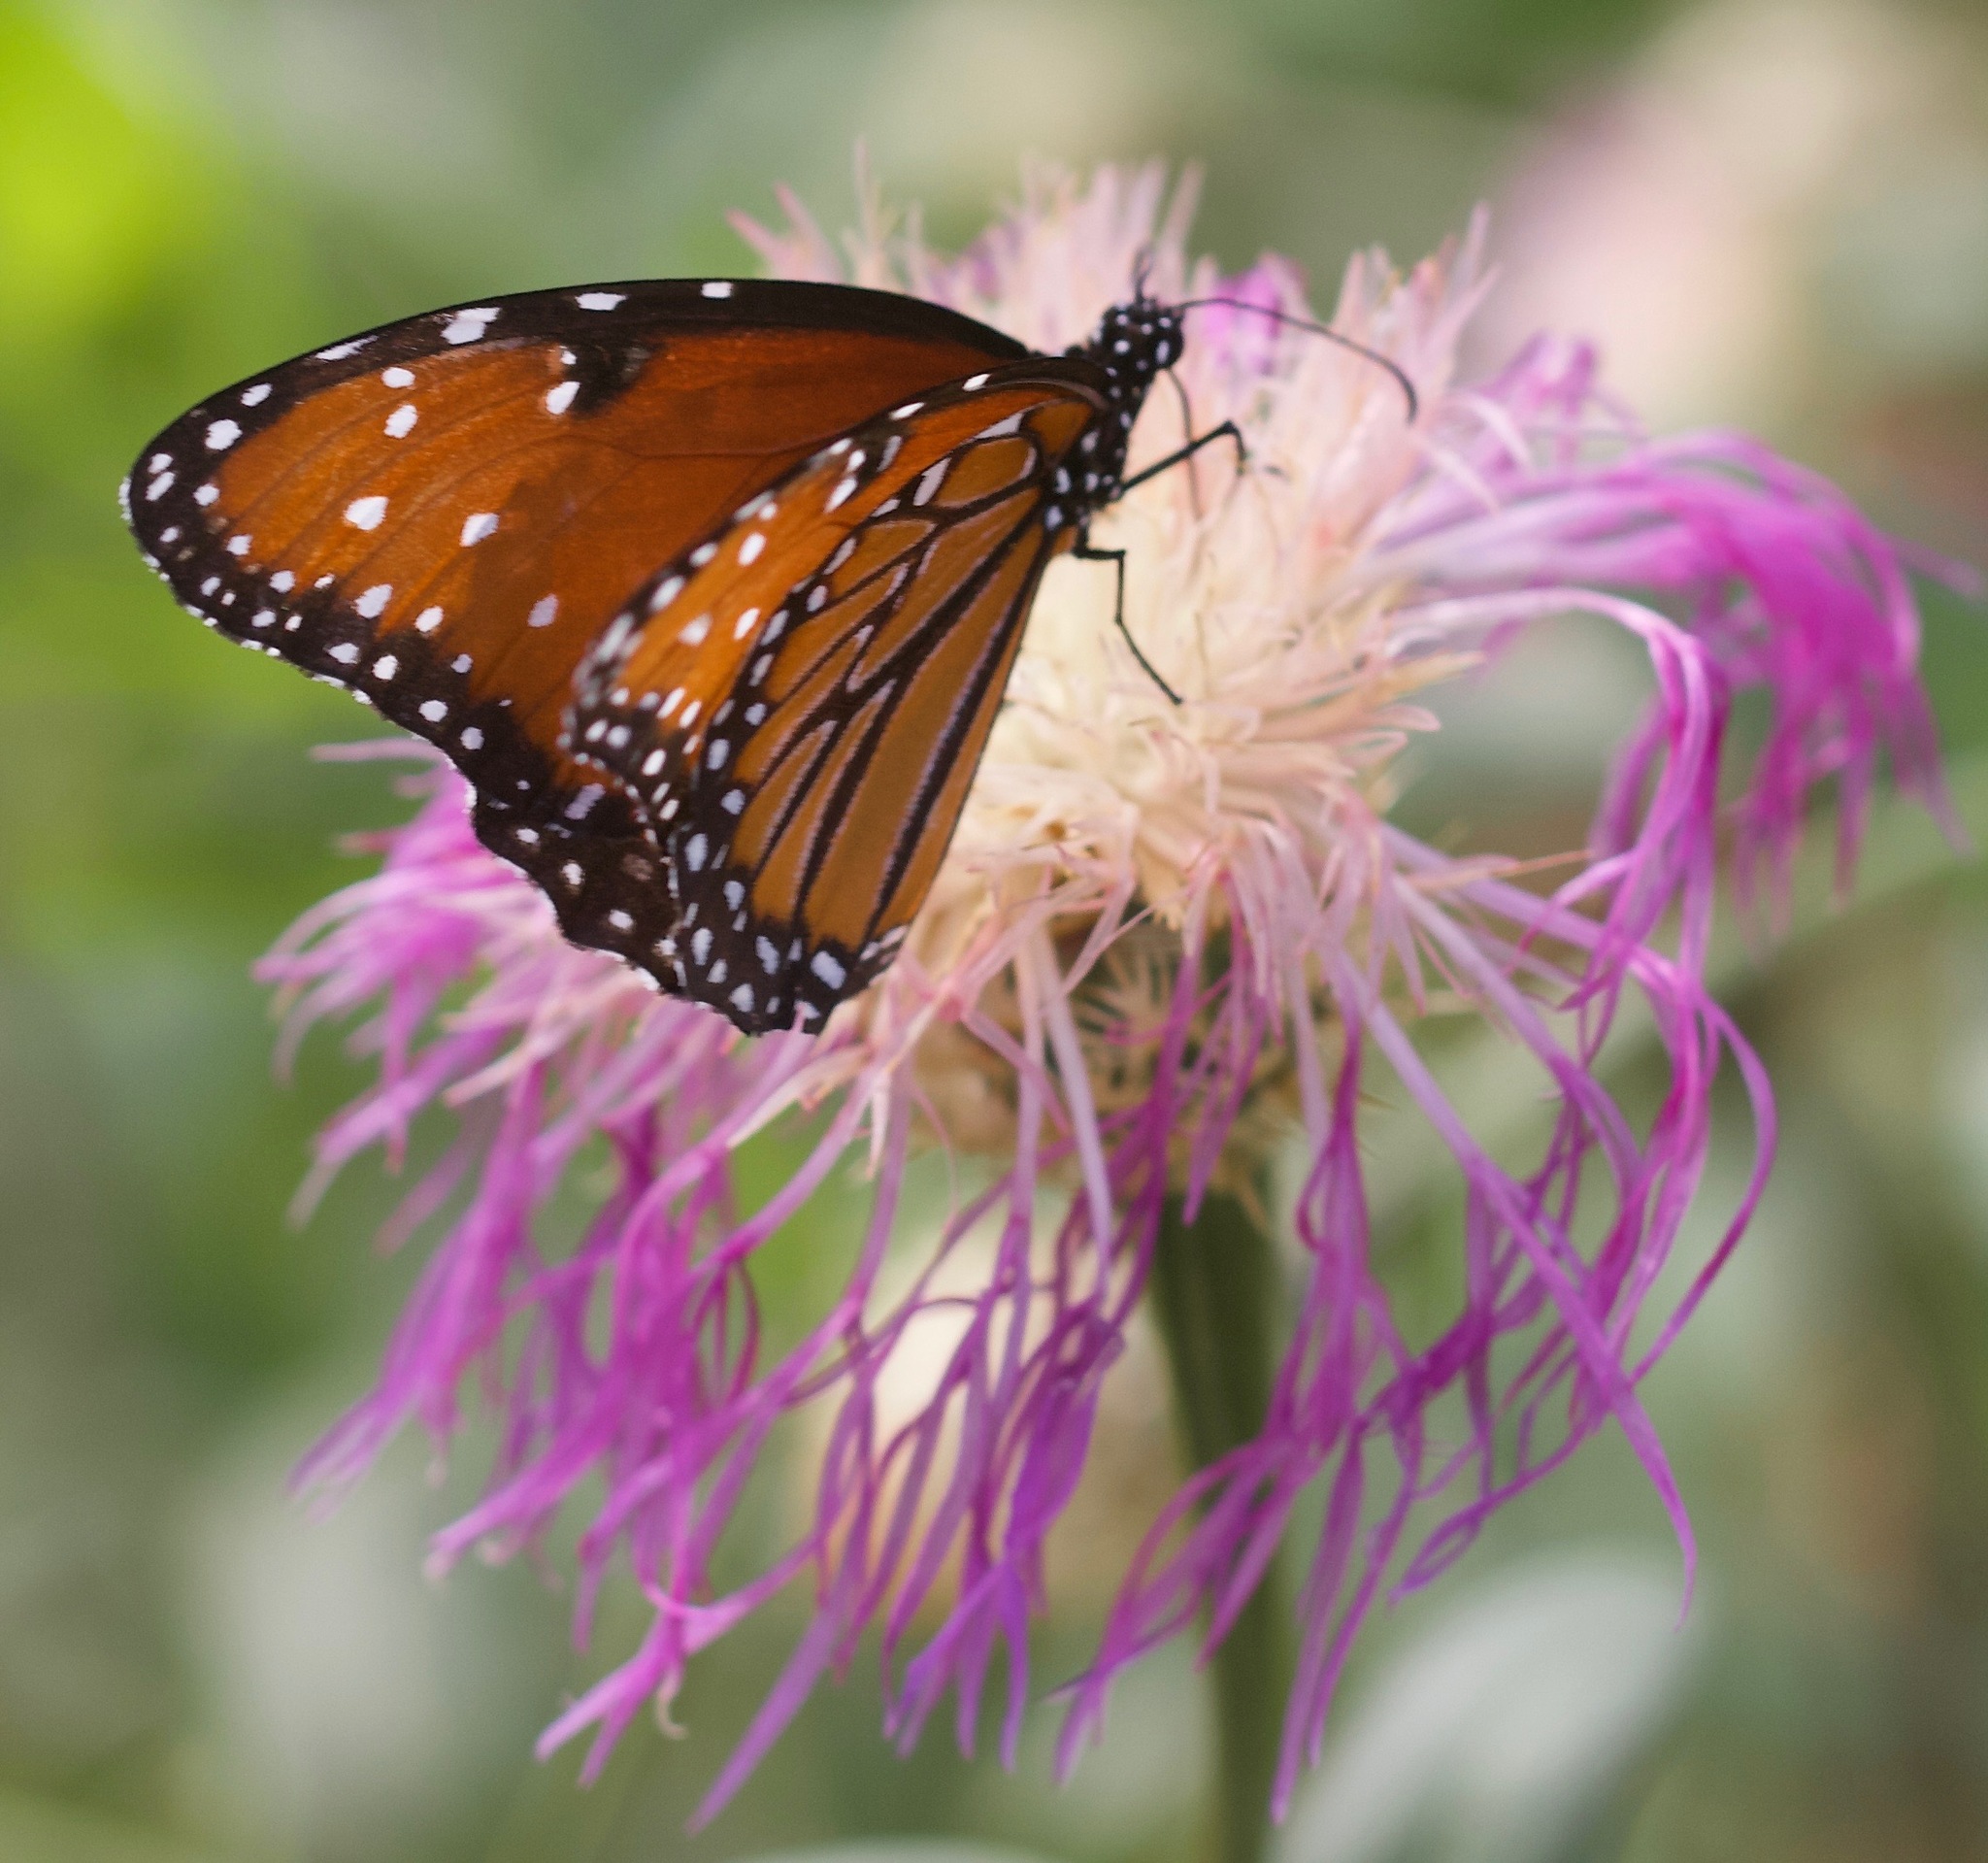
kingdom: Animalia
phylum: Arthropoda
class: Insecta
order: Lepidoptera
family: Nymphalidae
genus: Danaus
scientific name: Danaus gilippus
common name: Queen
